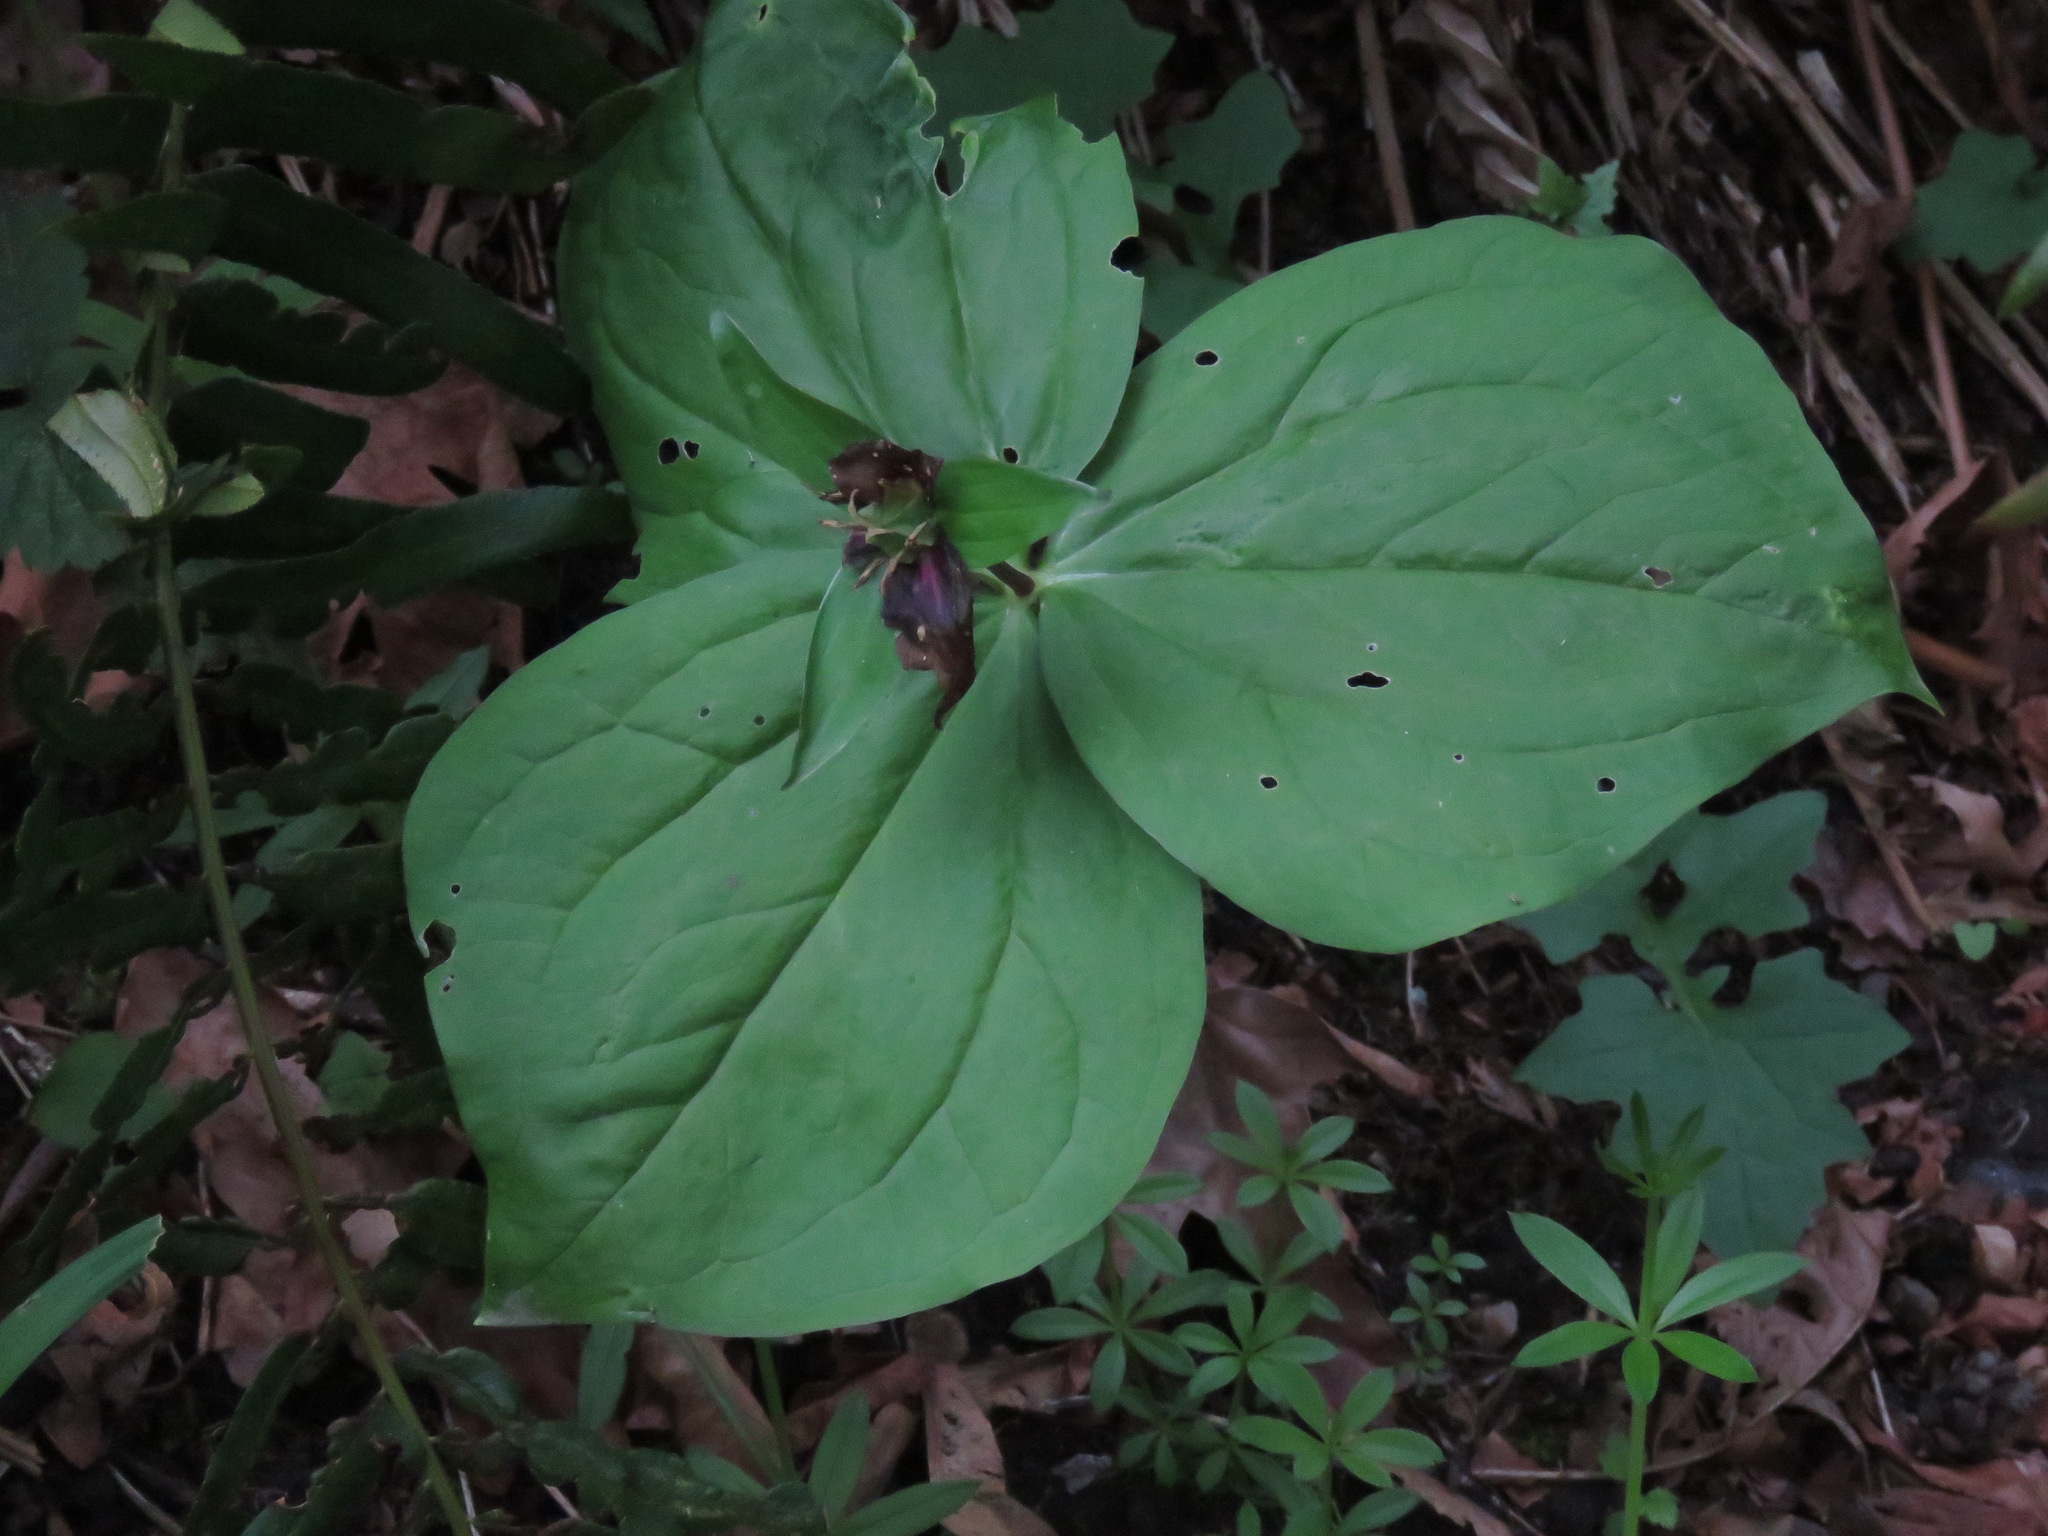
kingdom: Plantae
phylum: Tracheophyta
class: Liliopsida
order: Liliales
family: Melanthiaceae
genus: Trillium
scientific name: Trillium ovatum
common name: Pacific trillium
